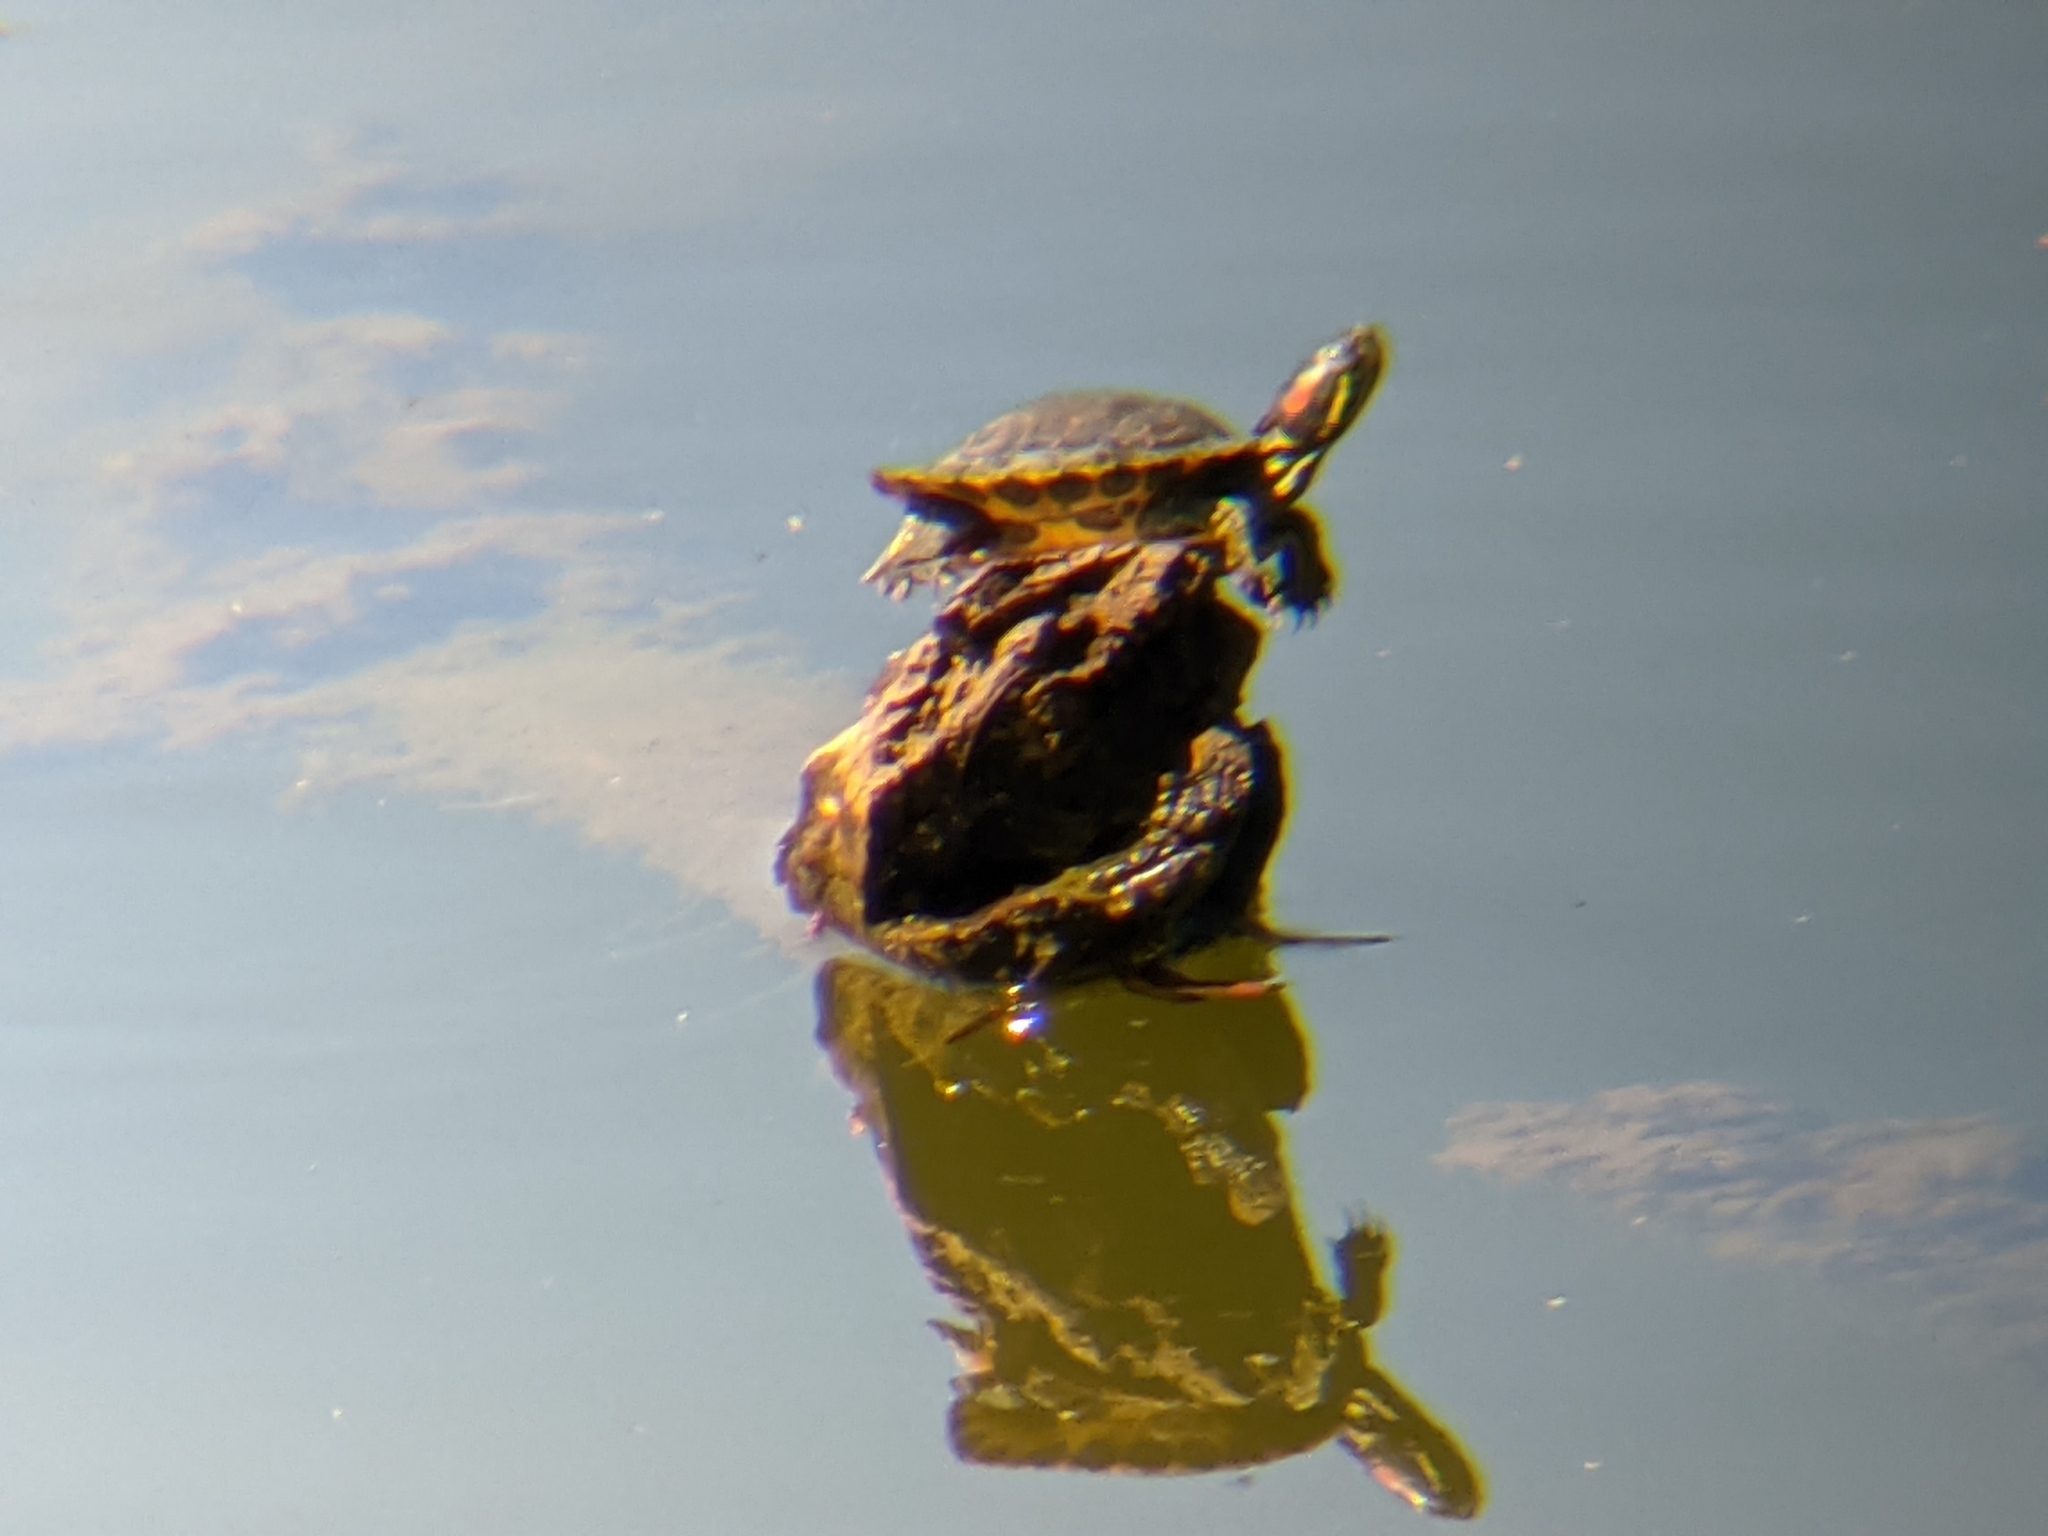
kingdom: Animalia
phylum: Chordata
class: Testudines
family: Emydidae
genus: Trachemys
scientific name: Trachemys scripta
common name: Slider
